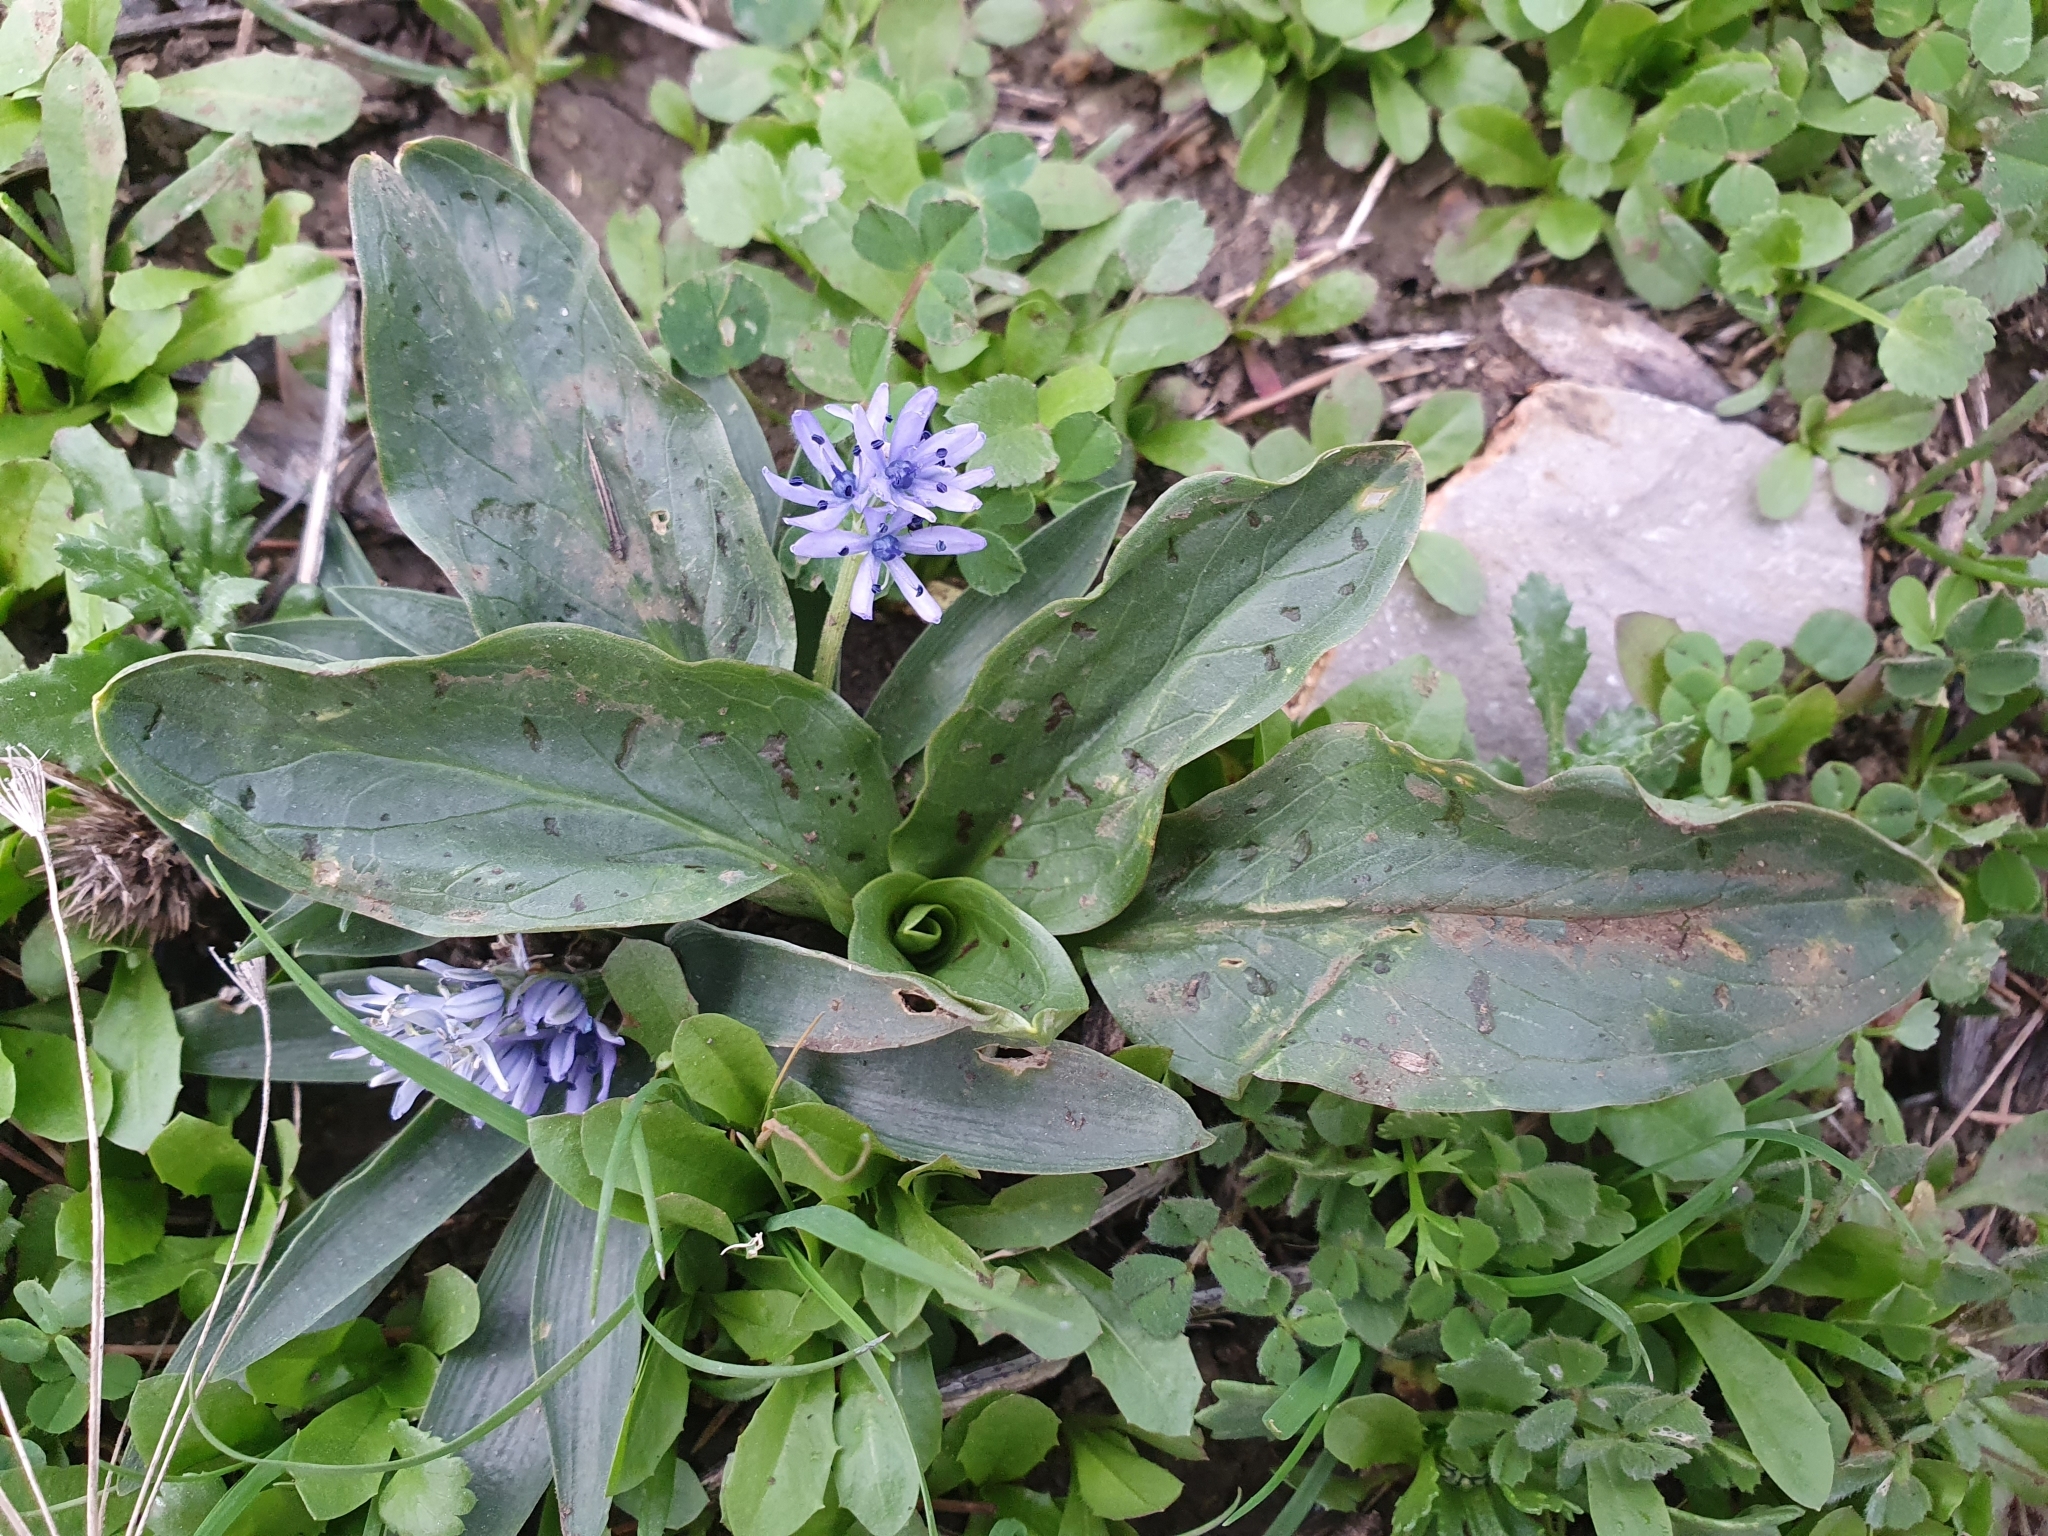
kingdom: Plantae
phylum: Tracheophyta
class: Liliopsida
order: Alismatales
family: Araceae
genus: Biarum
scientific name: Biarum dispar
